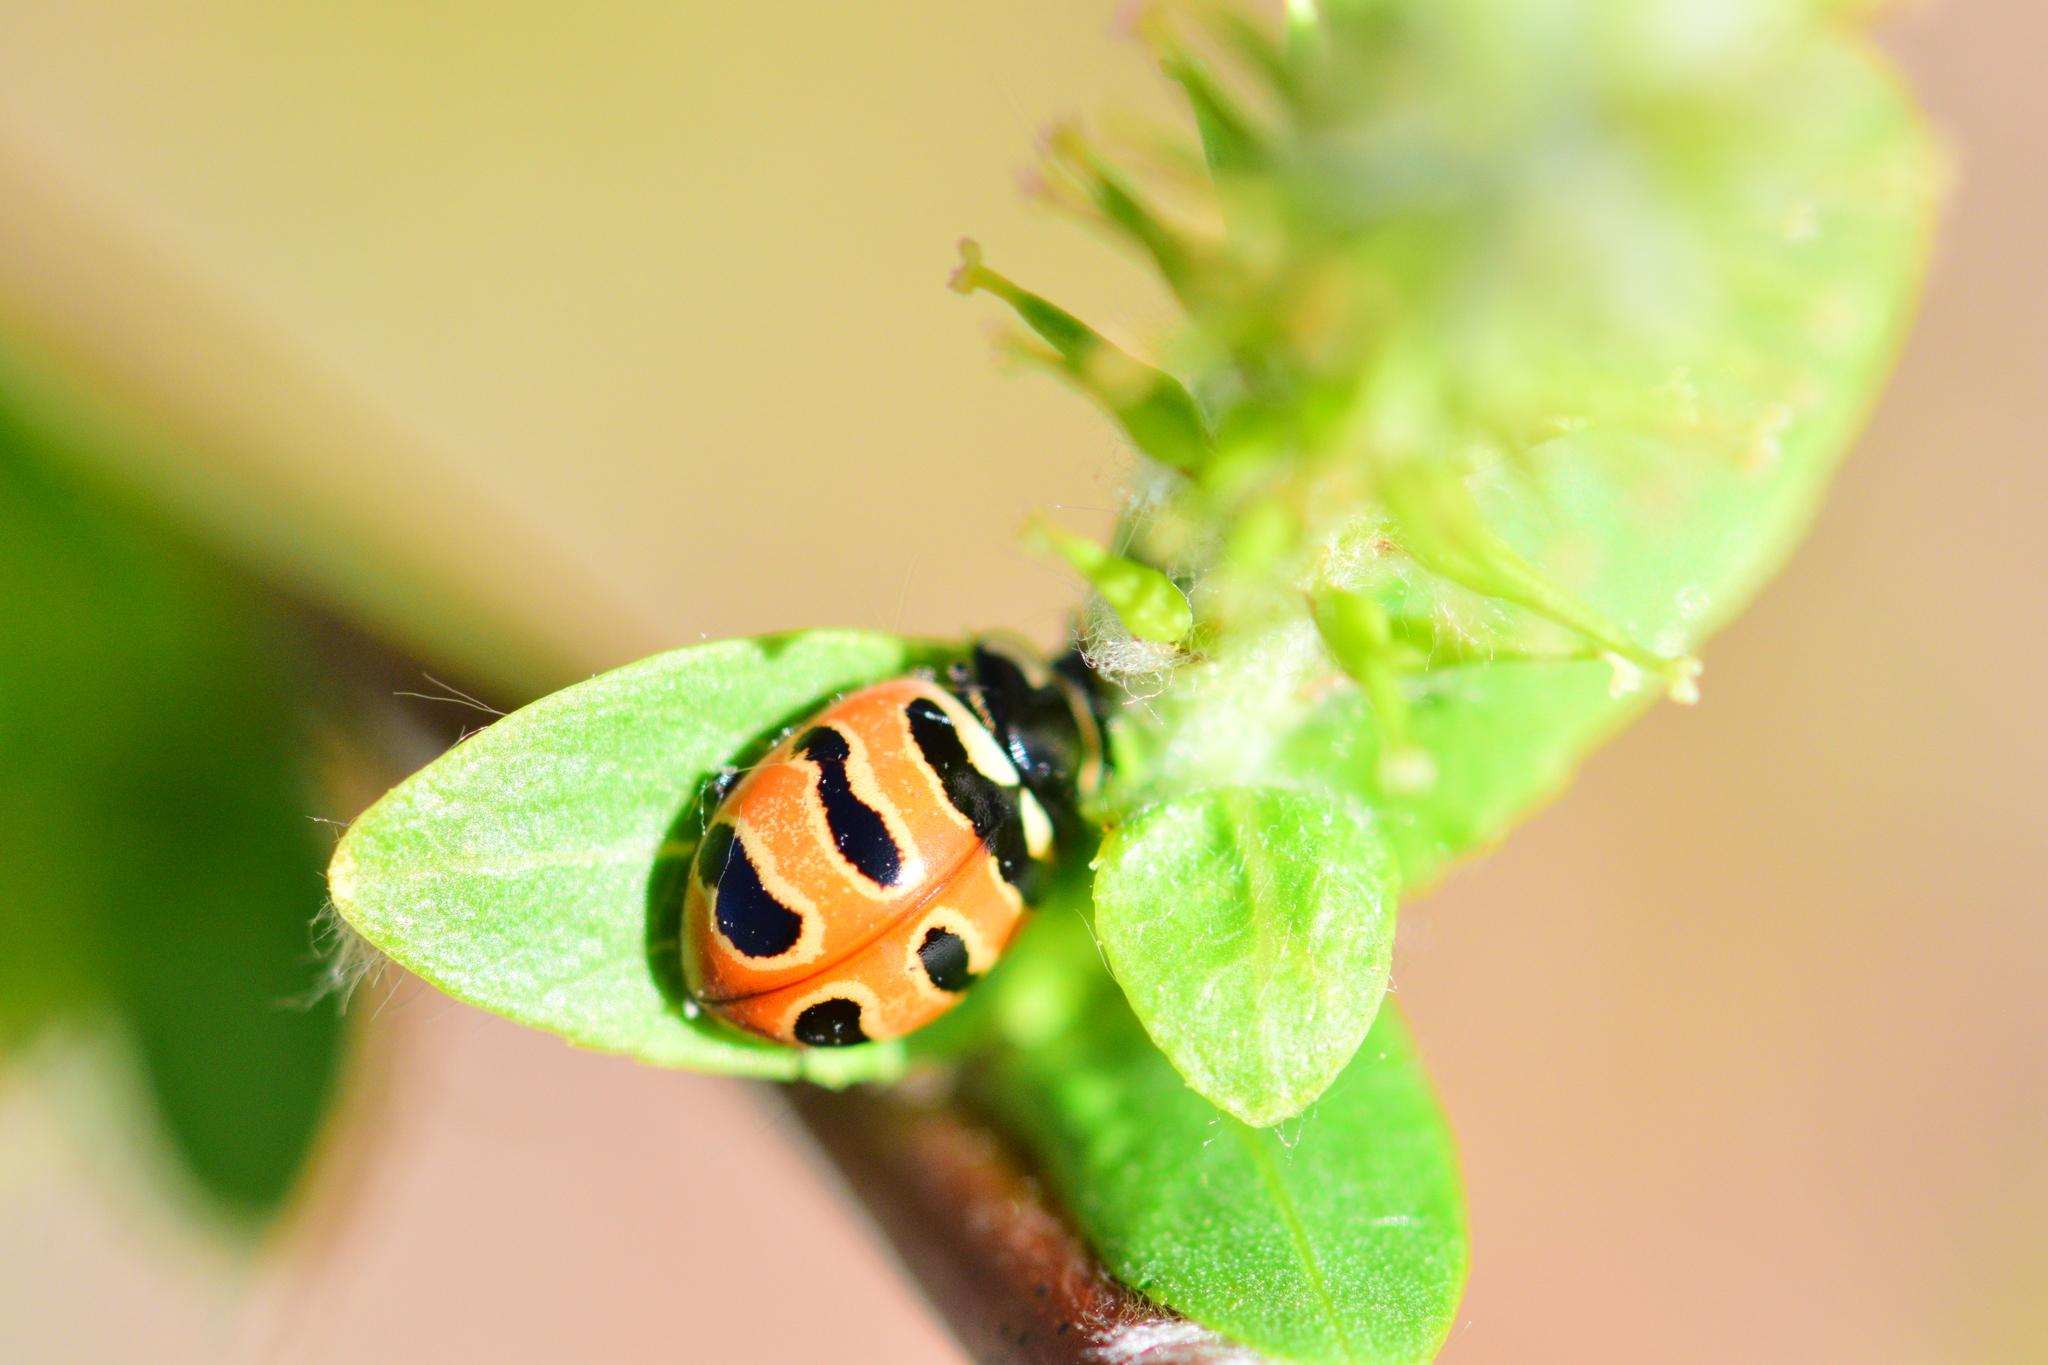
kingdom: Animalia
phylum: Arthropoda
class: Insecta
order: Coleoptera
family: Coccinellidae
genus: Coccinella
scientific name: Coccinella trifasciata
